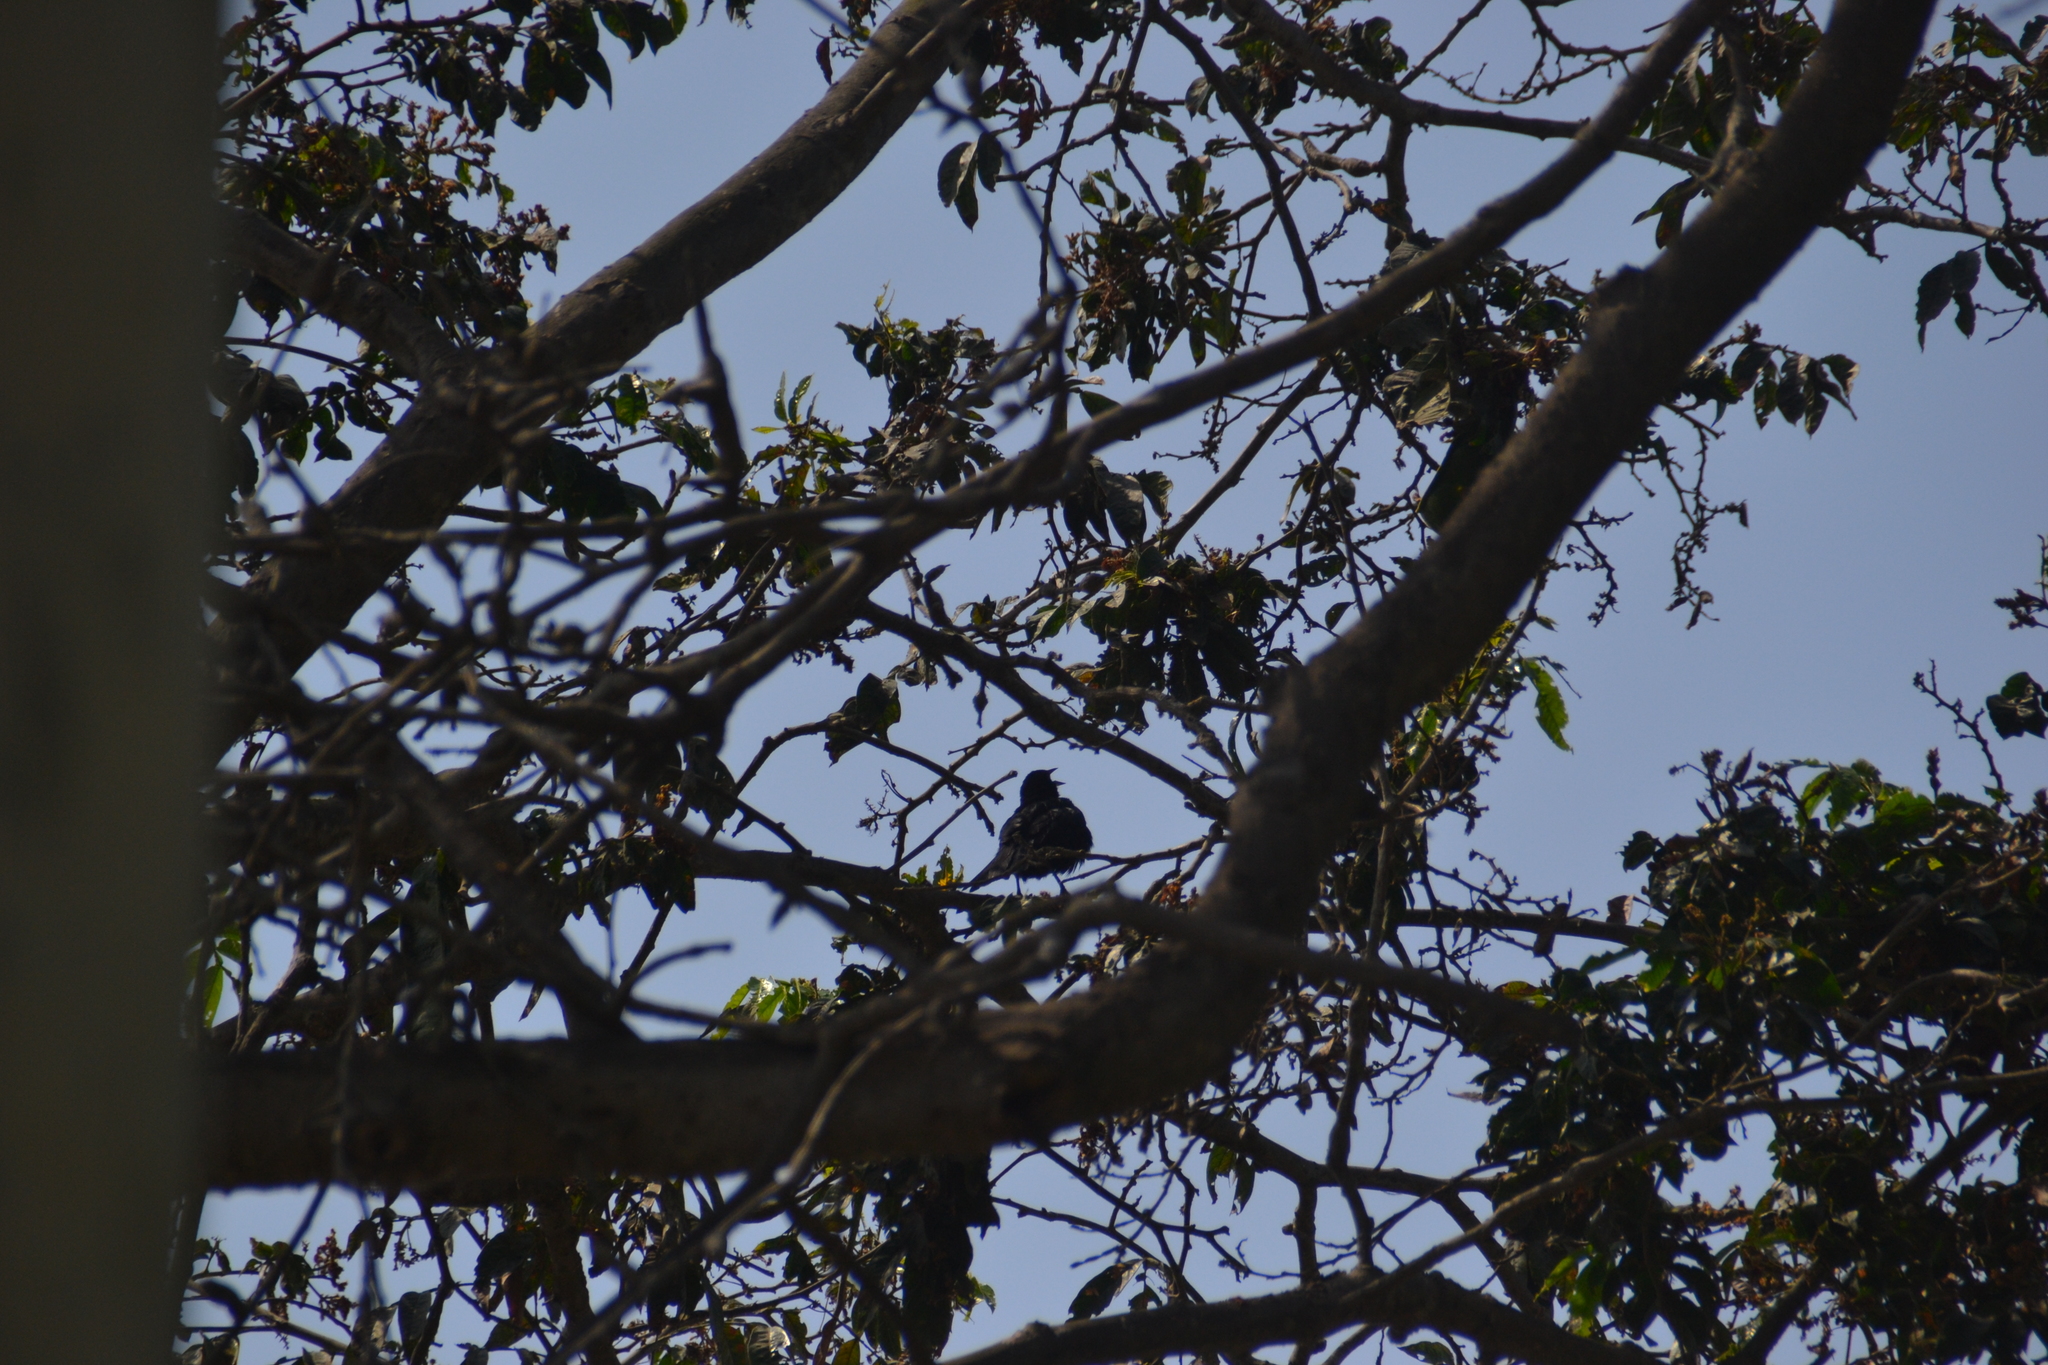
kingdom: Animalia
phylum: Chordata
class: Aves
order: Passeriformes
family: Icteridae
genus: Dives
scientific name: Dives warczewiczi
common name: Scrub blackbird
